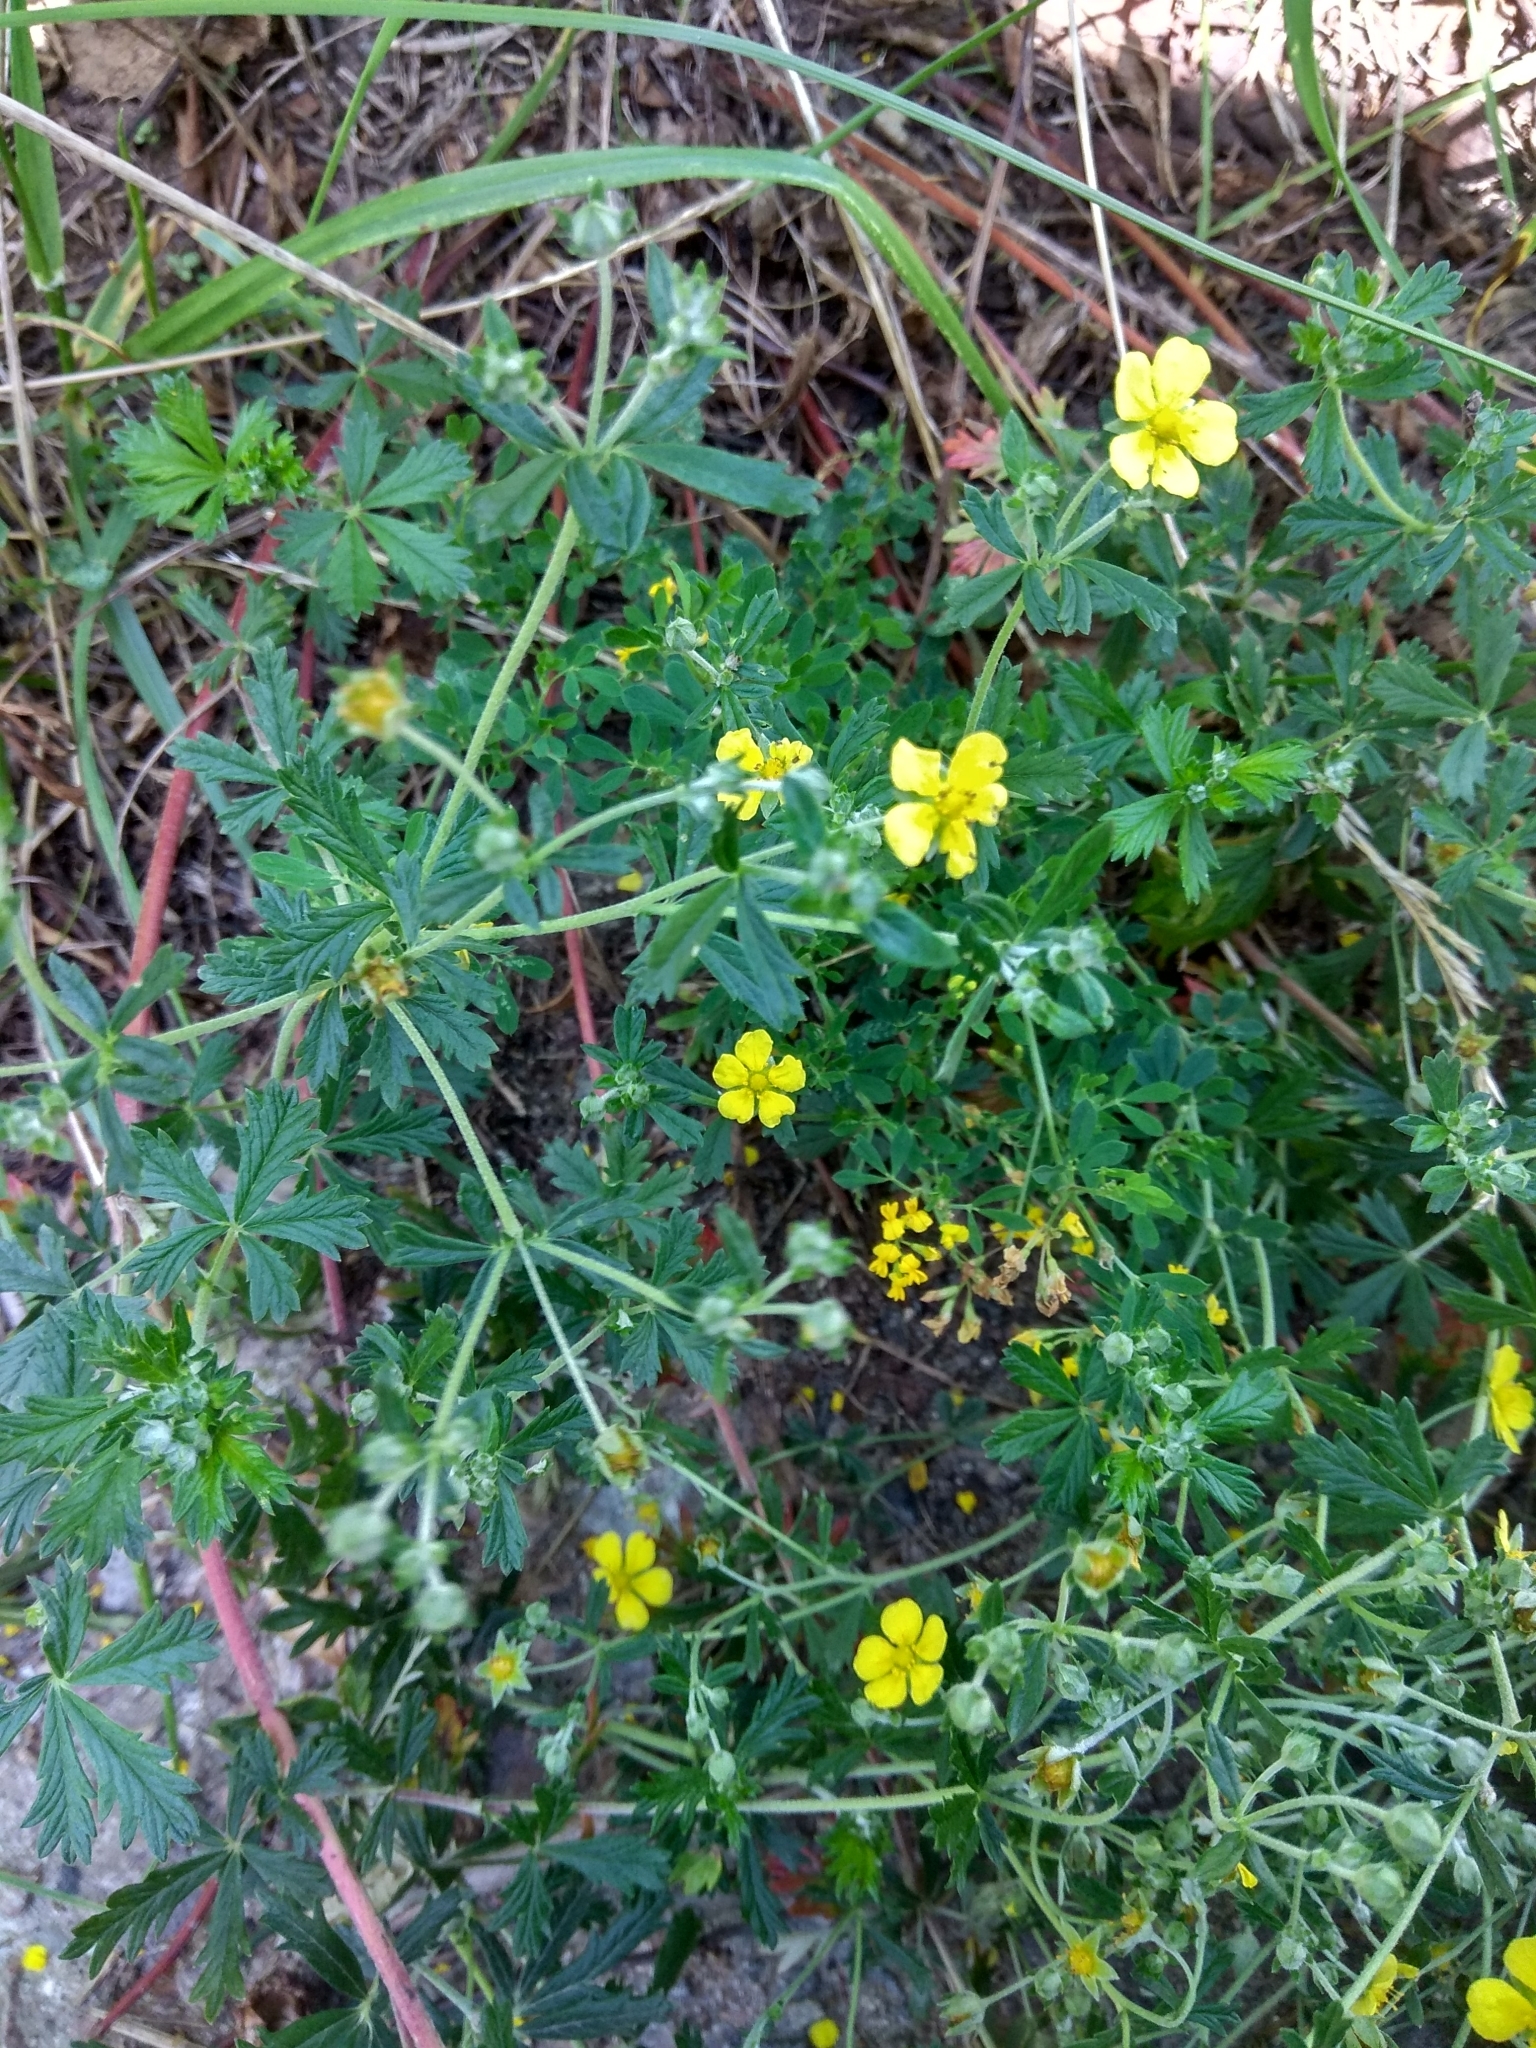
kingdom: Plantae
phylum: Tracheophyta
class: Magnoliopsida
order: Rosales
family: Rosaceae
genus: Potentilla
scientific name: Potentilla argentea
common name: Hoary cinquefoil
